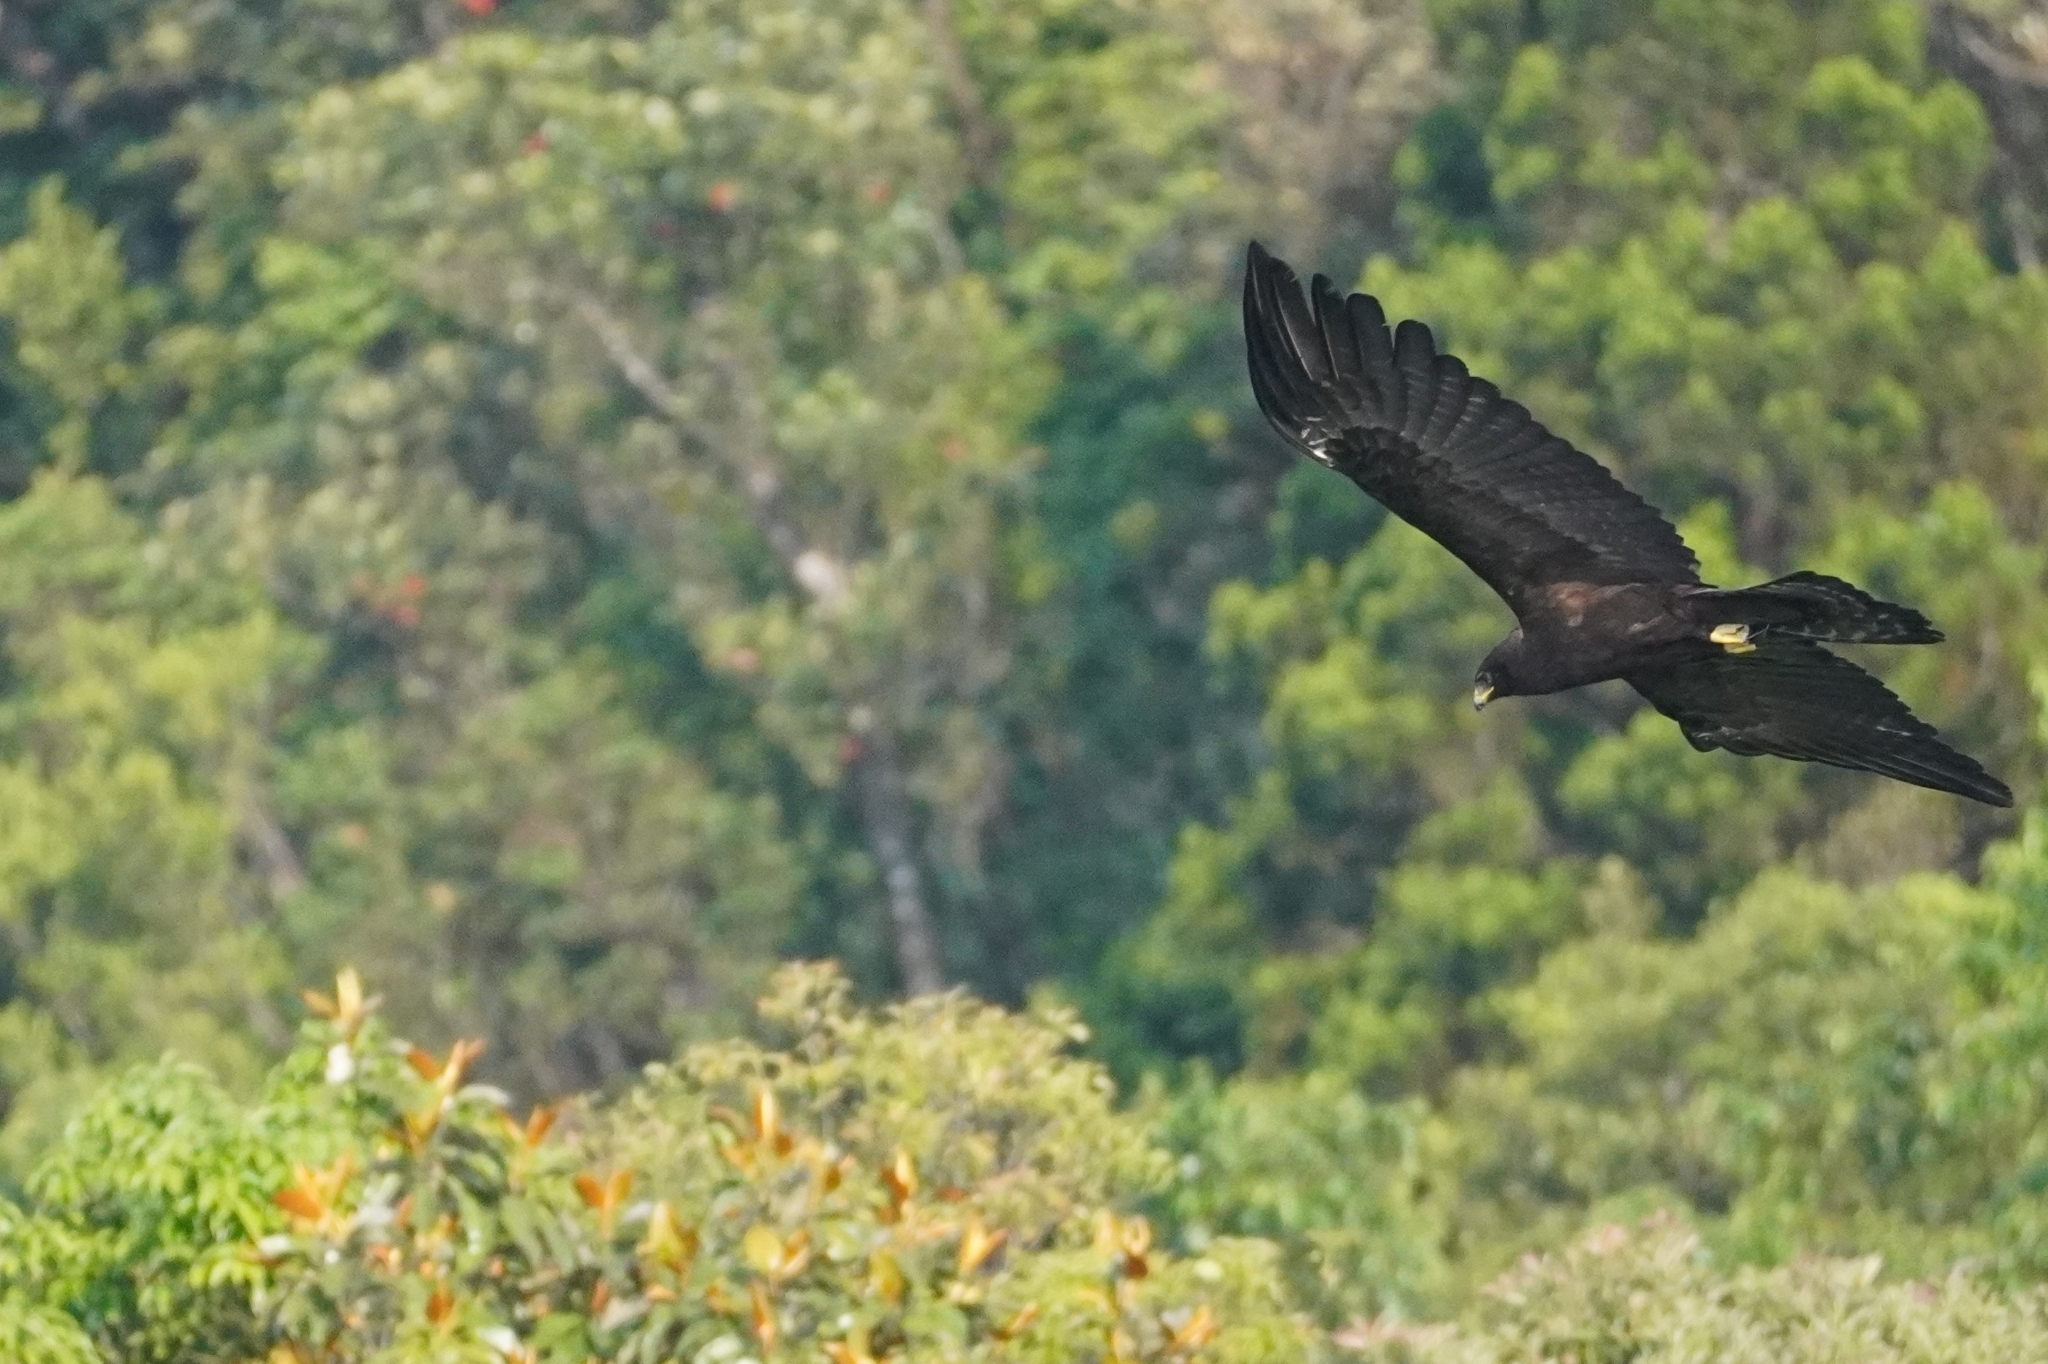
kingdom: Animalia
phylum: Chordata
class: Aves
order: Accipitriformes
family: Accipitridae
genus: Ictinaetus
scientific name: Ictinaetus malayensis
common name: Black eagle
